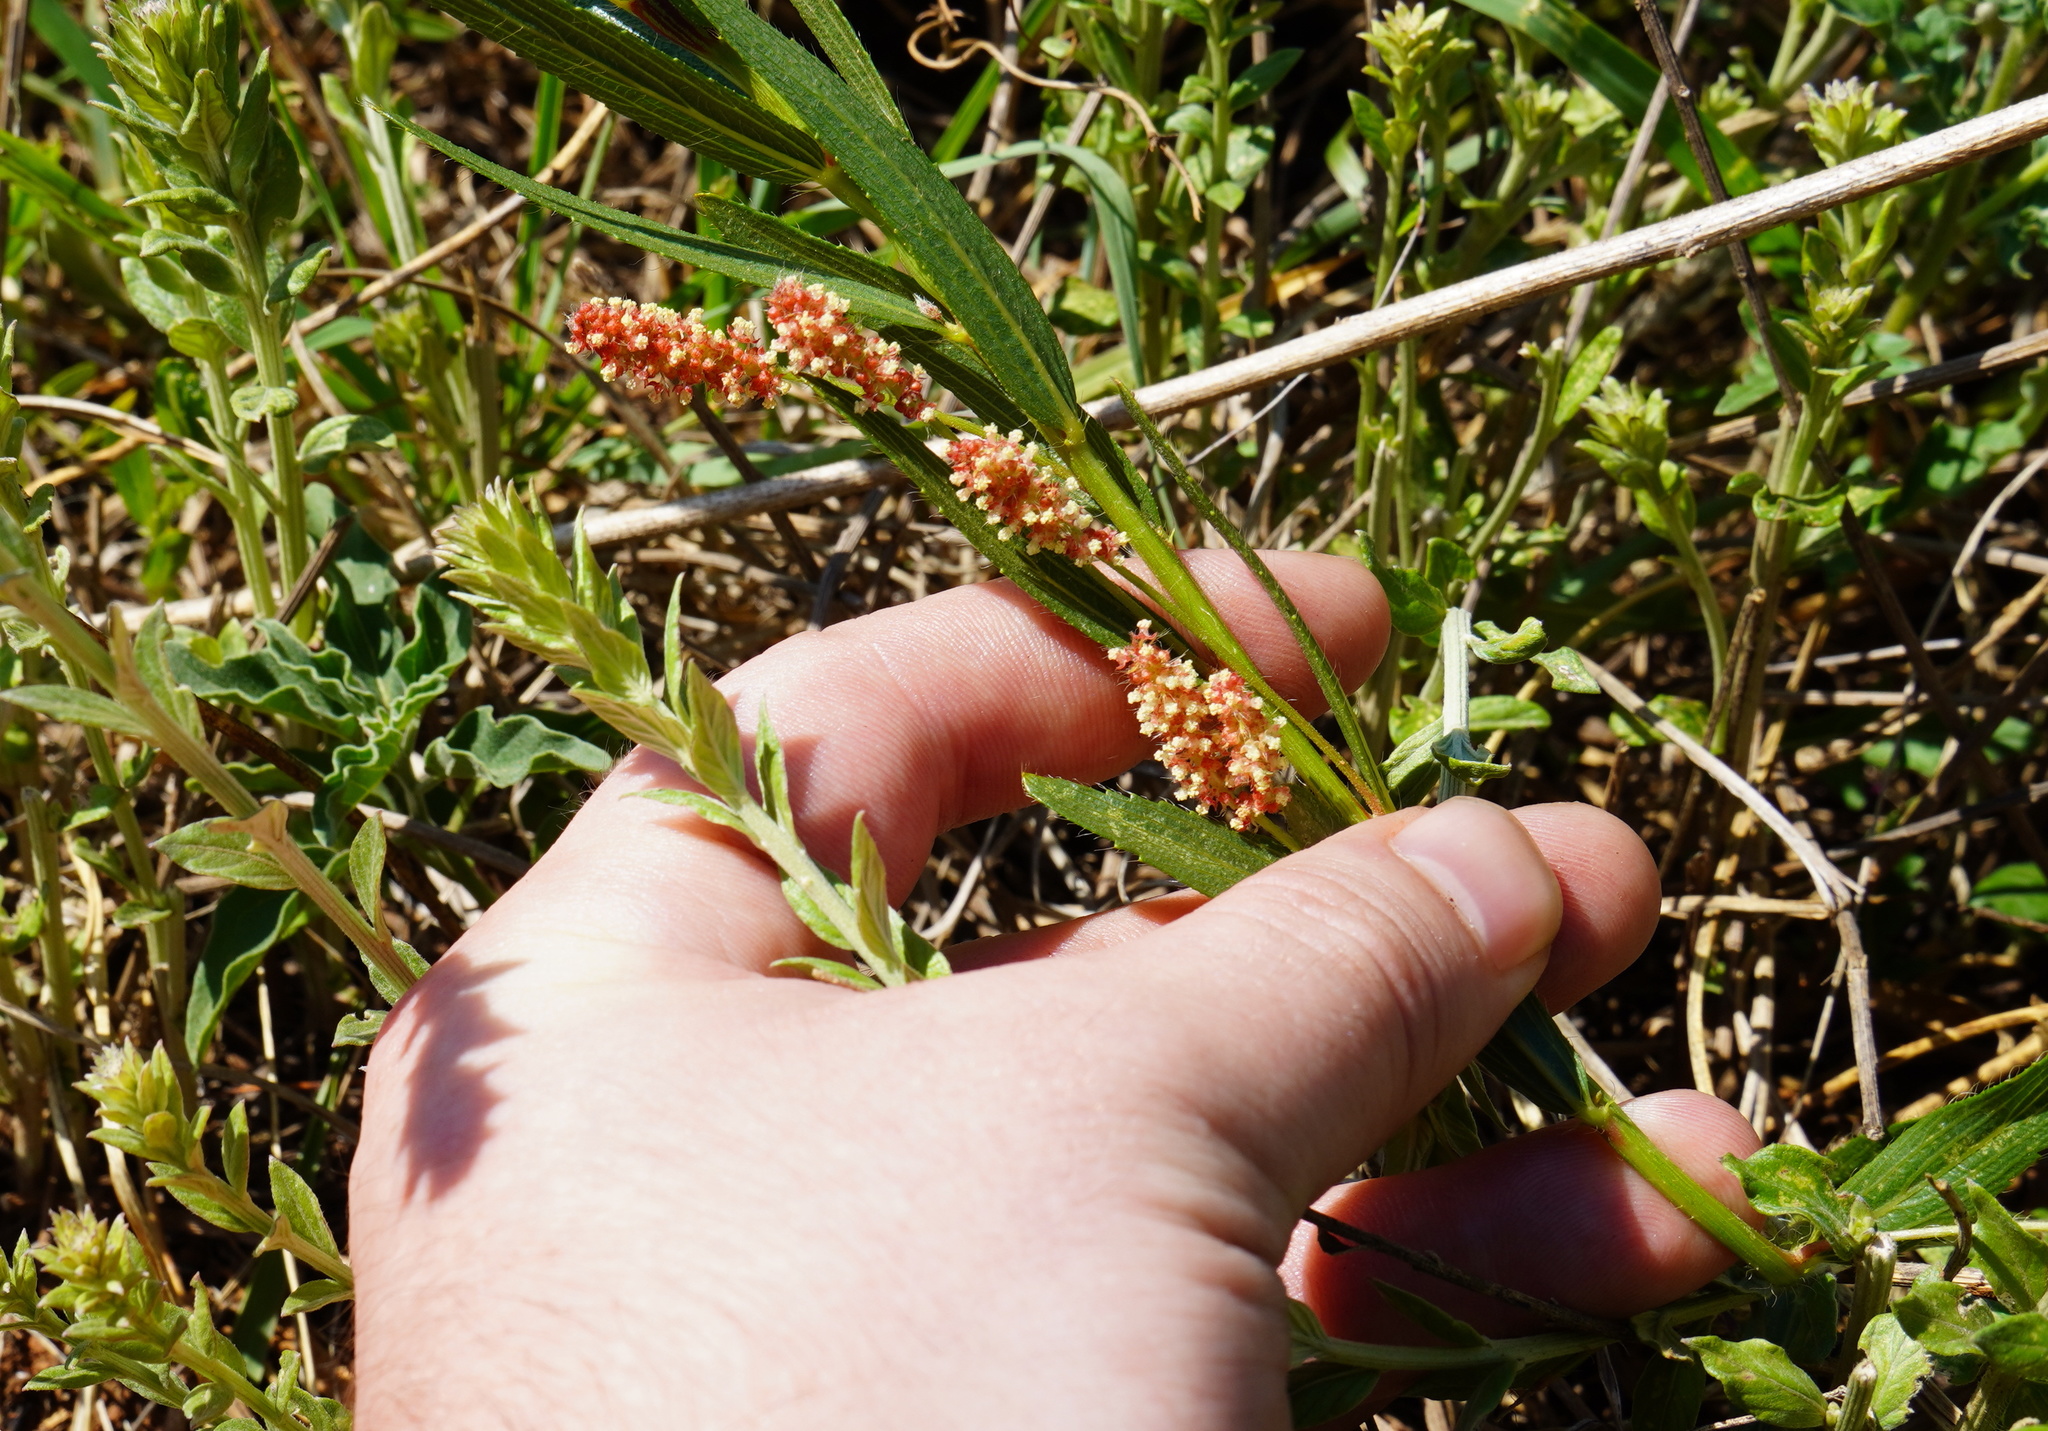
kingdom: Plantae
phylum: Tracheophyta
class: Magnoliopsida
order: Malpighiales
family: Euphorbiaceae
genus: Acalypha
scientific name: Acalypha caperonioides
